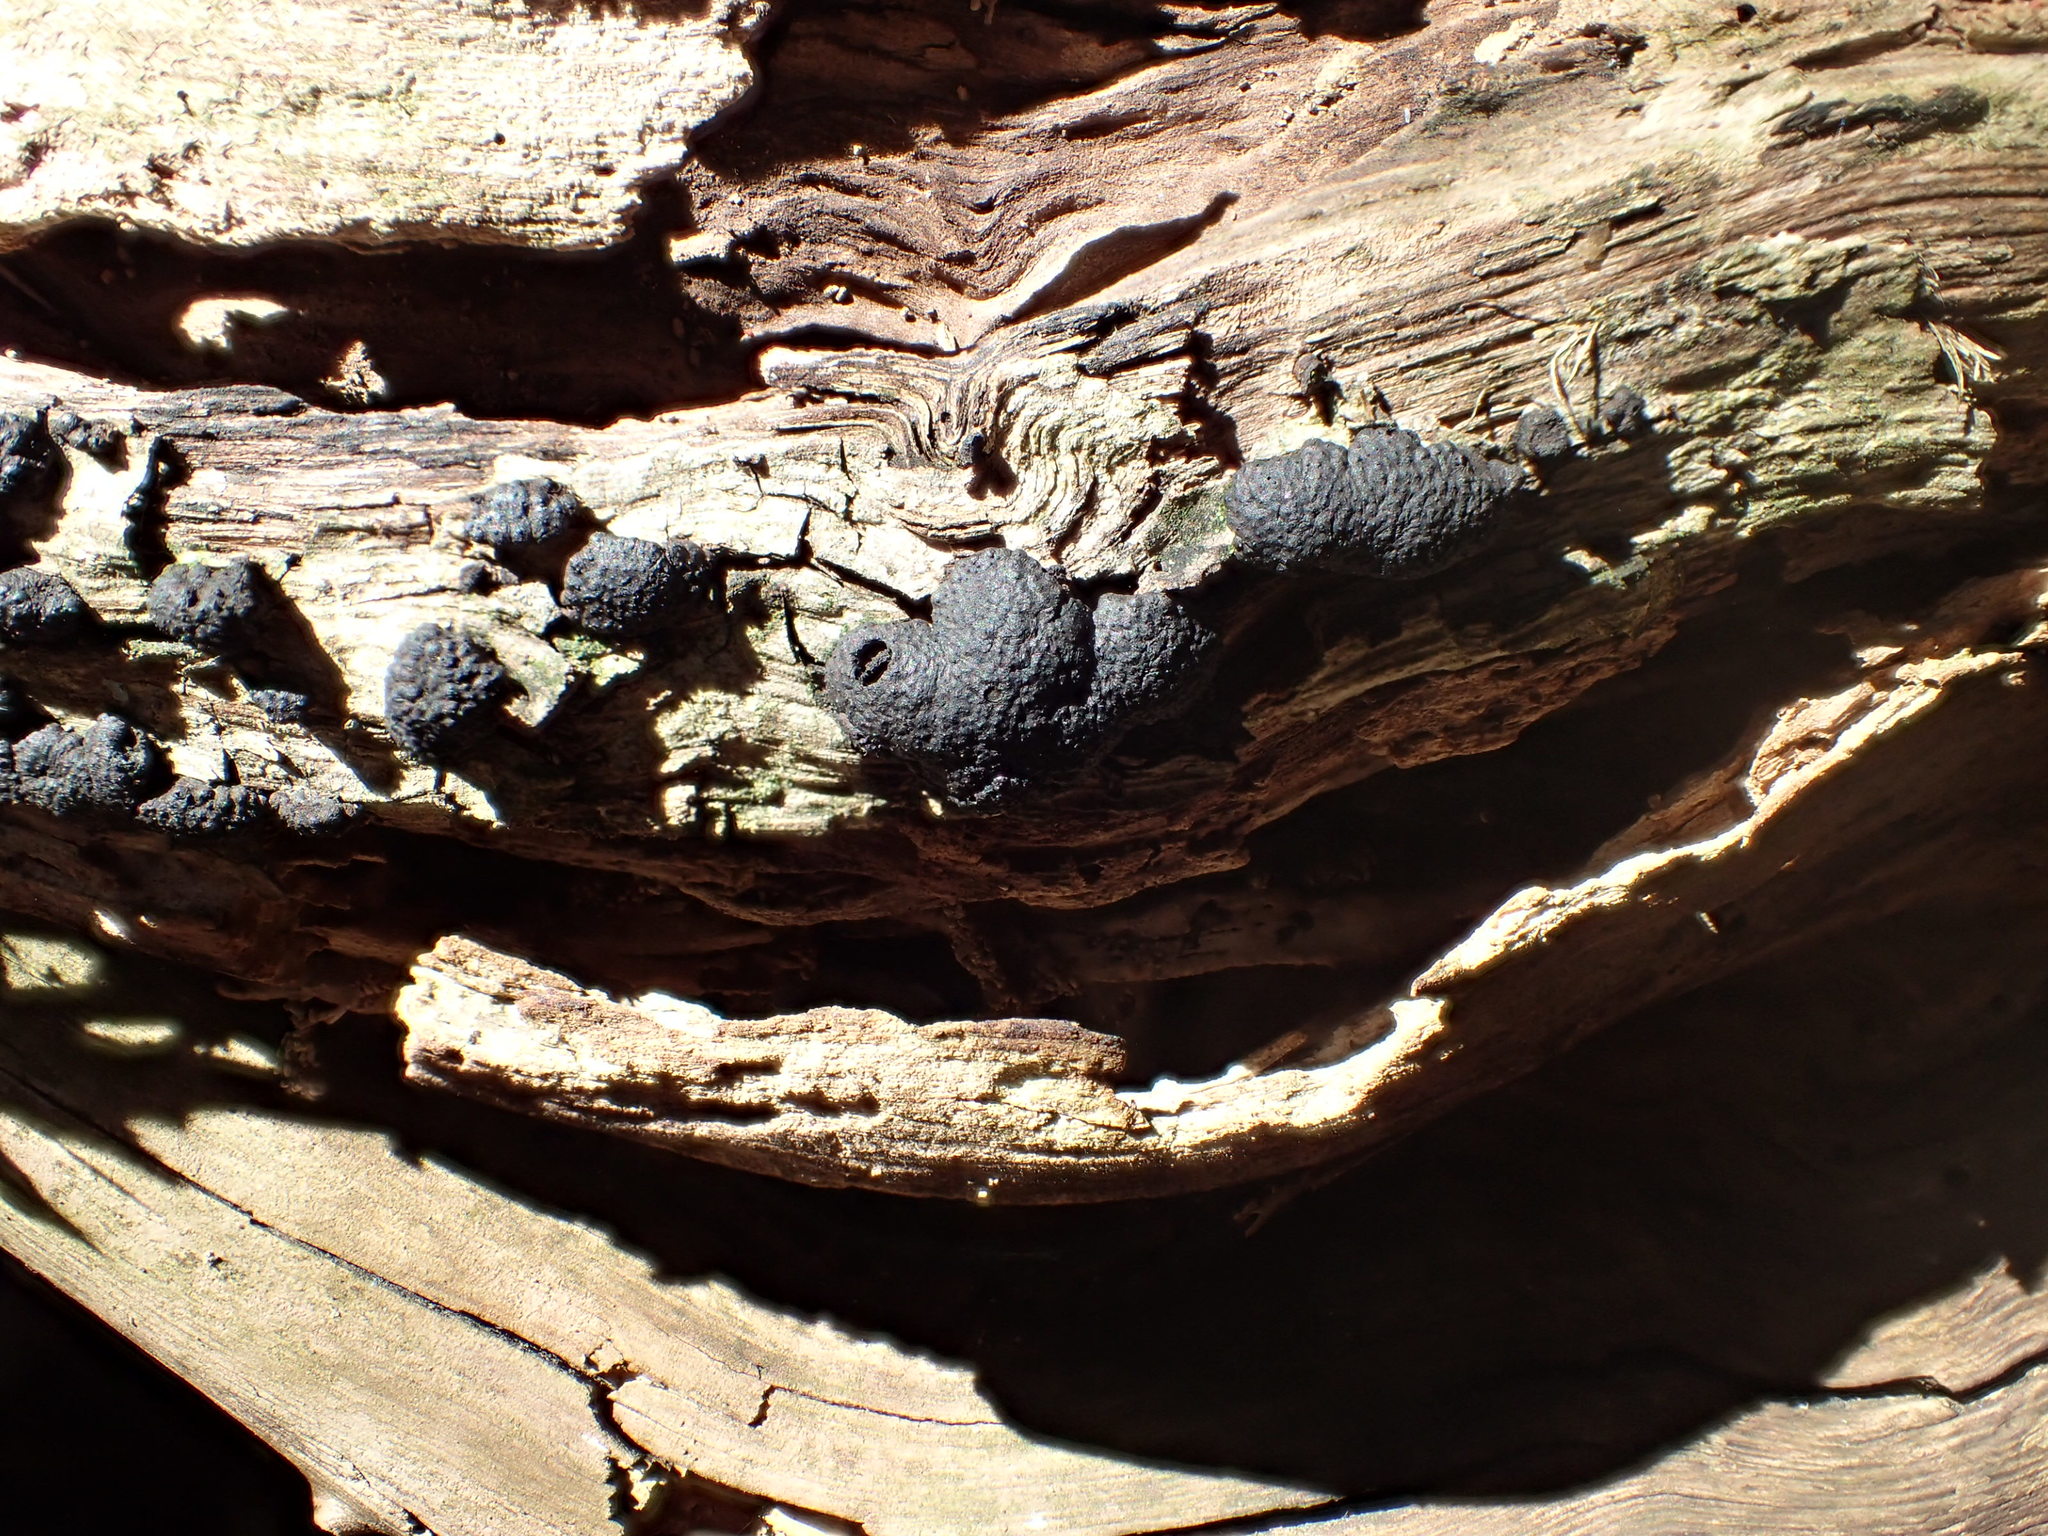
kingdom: Fungi
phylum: Ascomycota
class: Sordariomycetes
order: Xylariales
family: Hypoxylaceae
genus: Annulohypoxylon
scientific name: Annulohypoxylon thouarsianum
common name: Cramp balls
